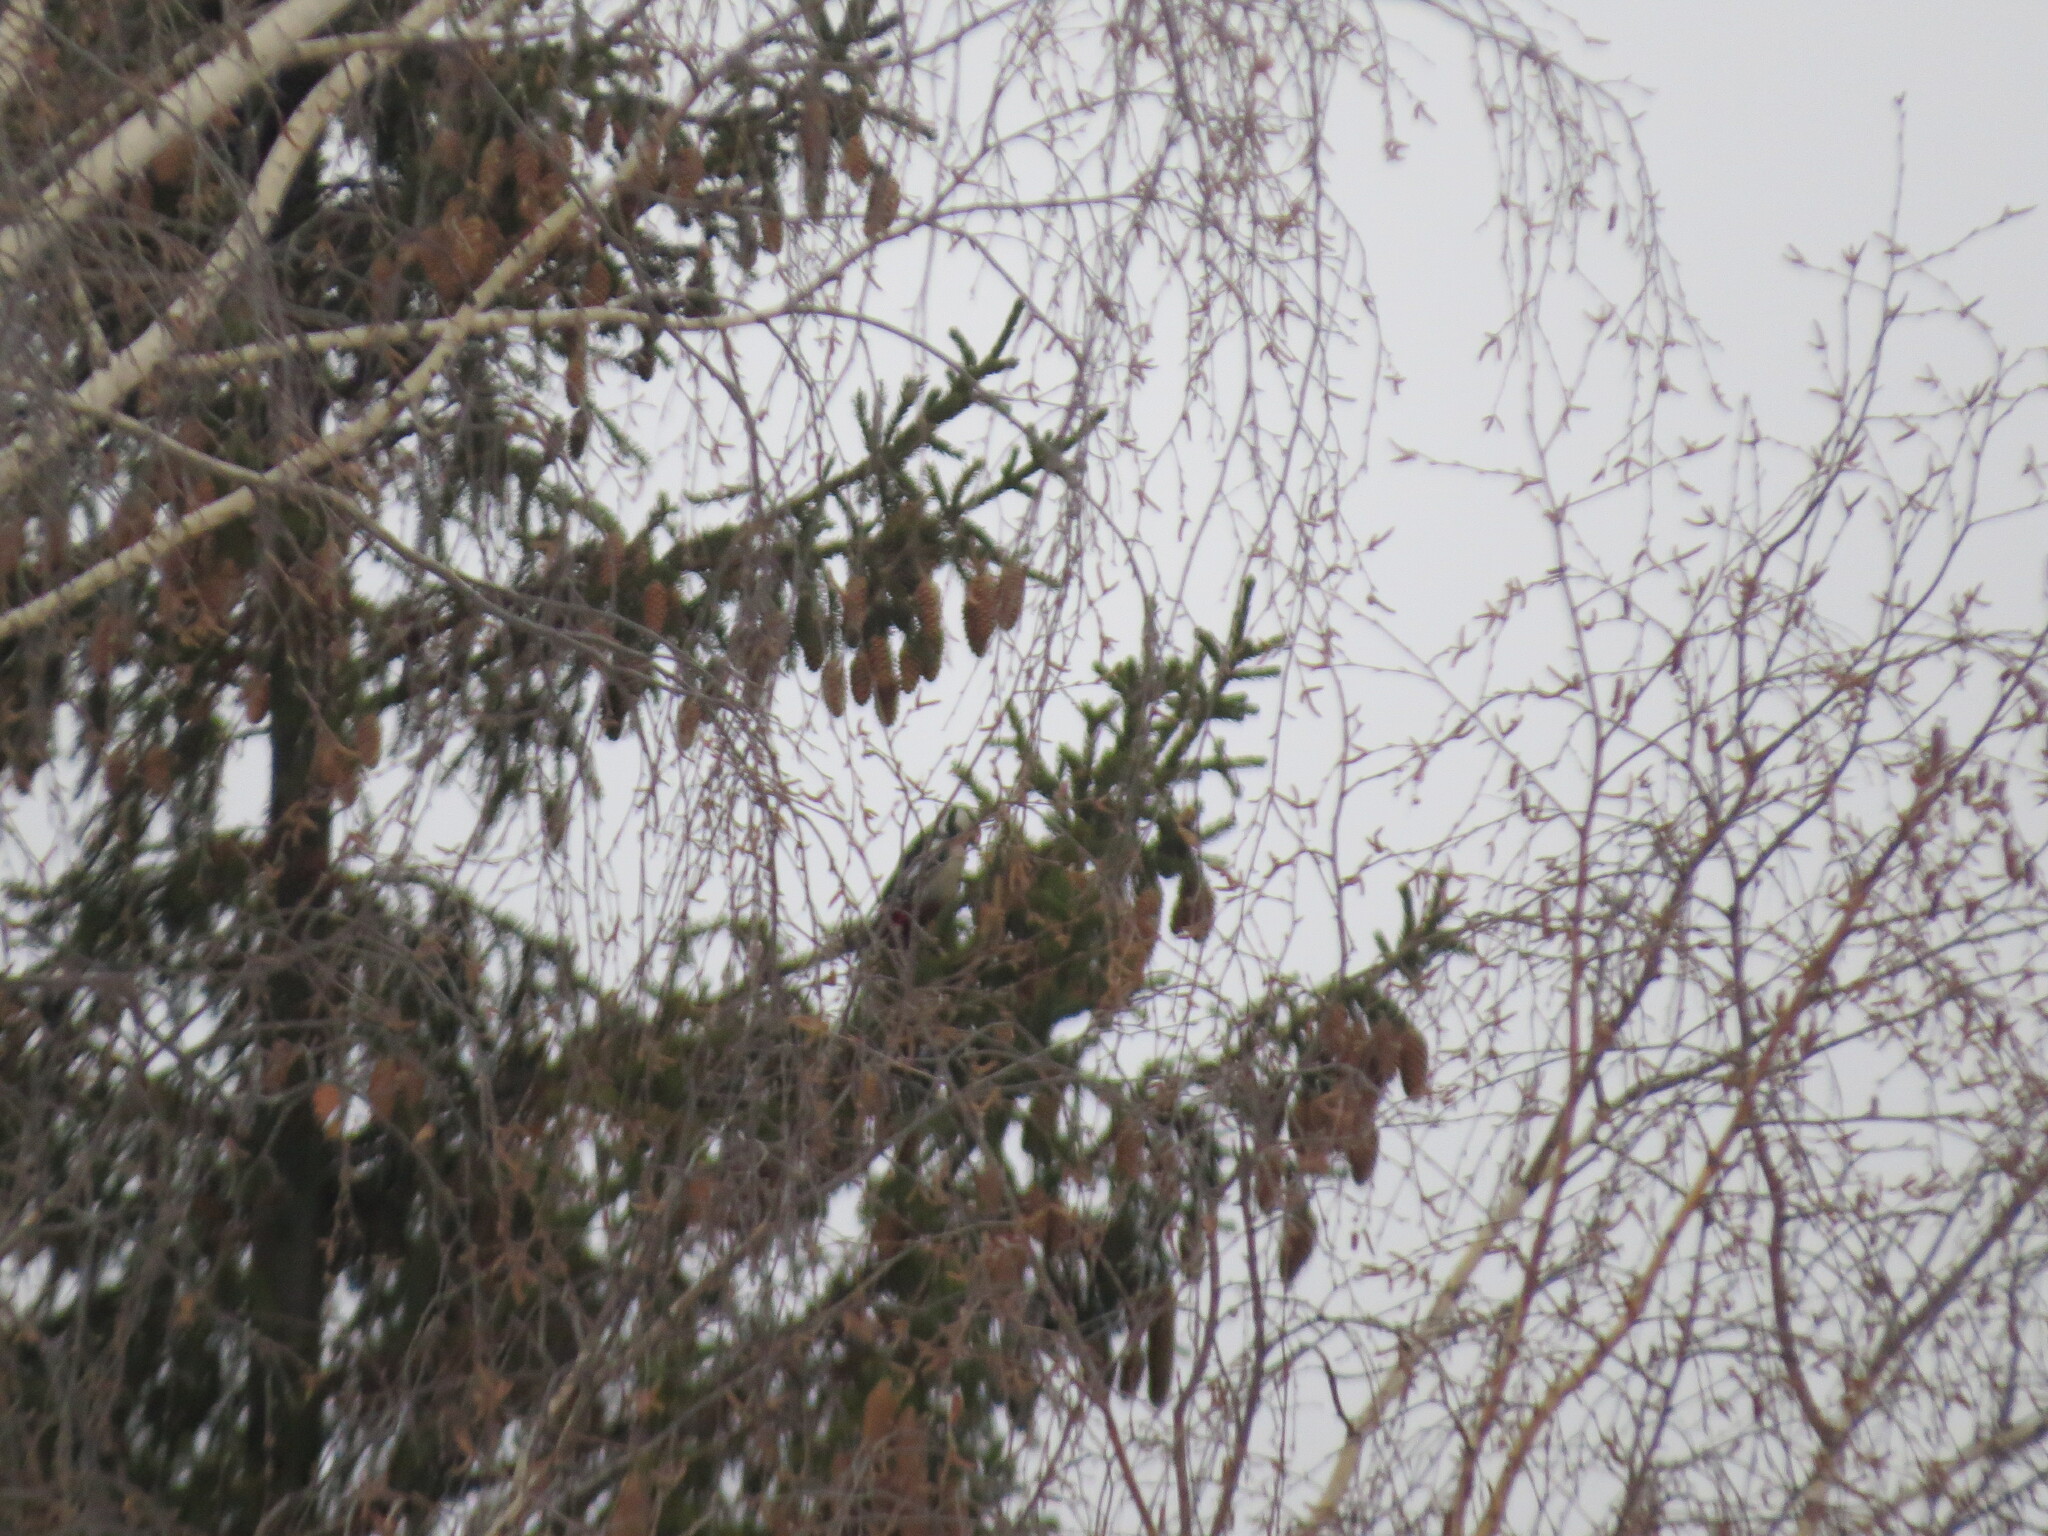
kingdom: Animalia
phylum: Chordata
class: Aves
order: Piciformes
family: Picidae
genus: Dendrocopos
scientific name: Dendrocopos major
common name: Great spotted woodpecker
